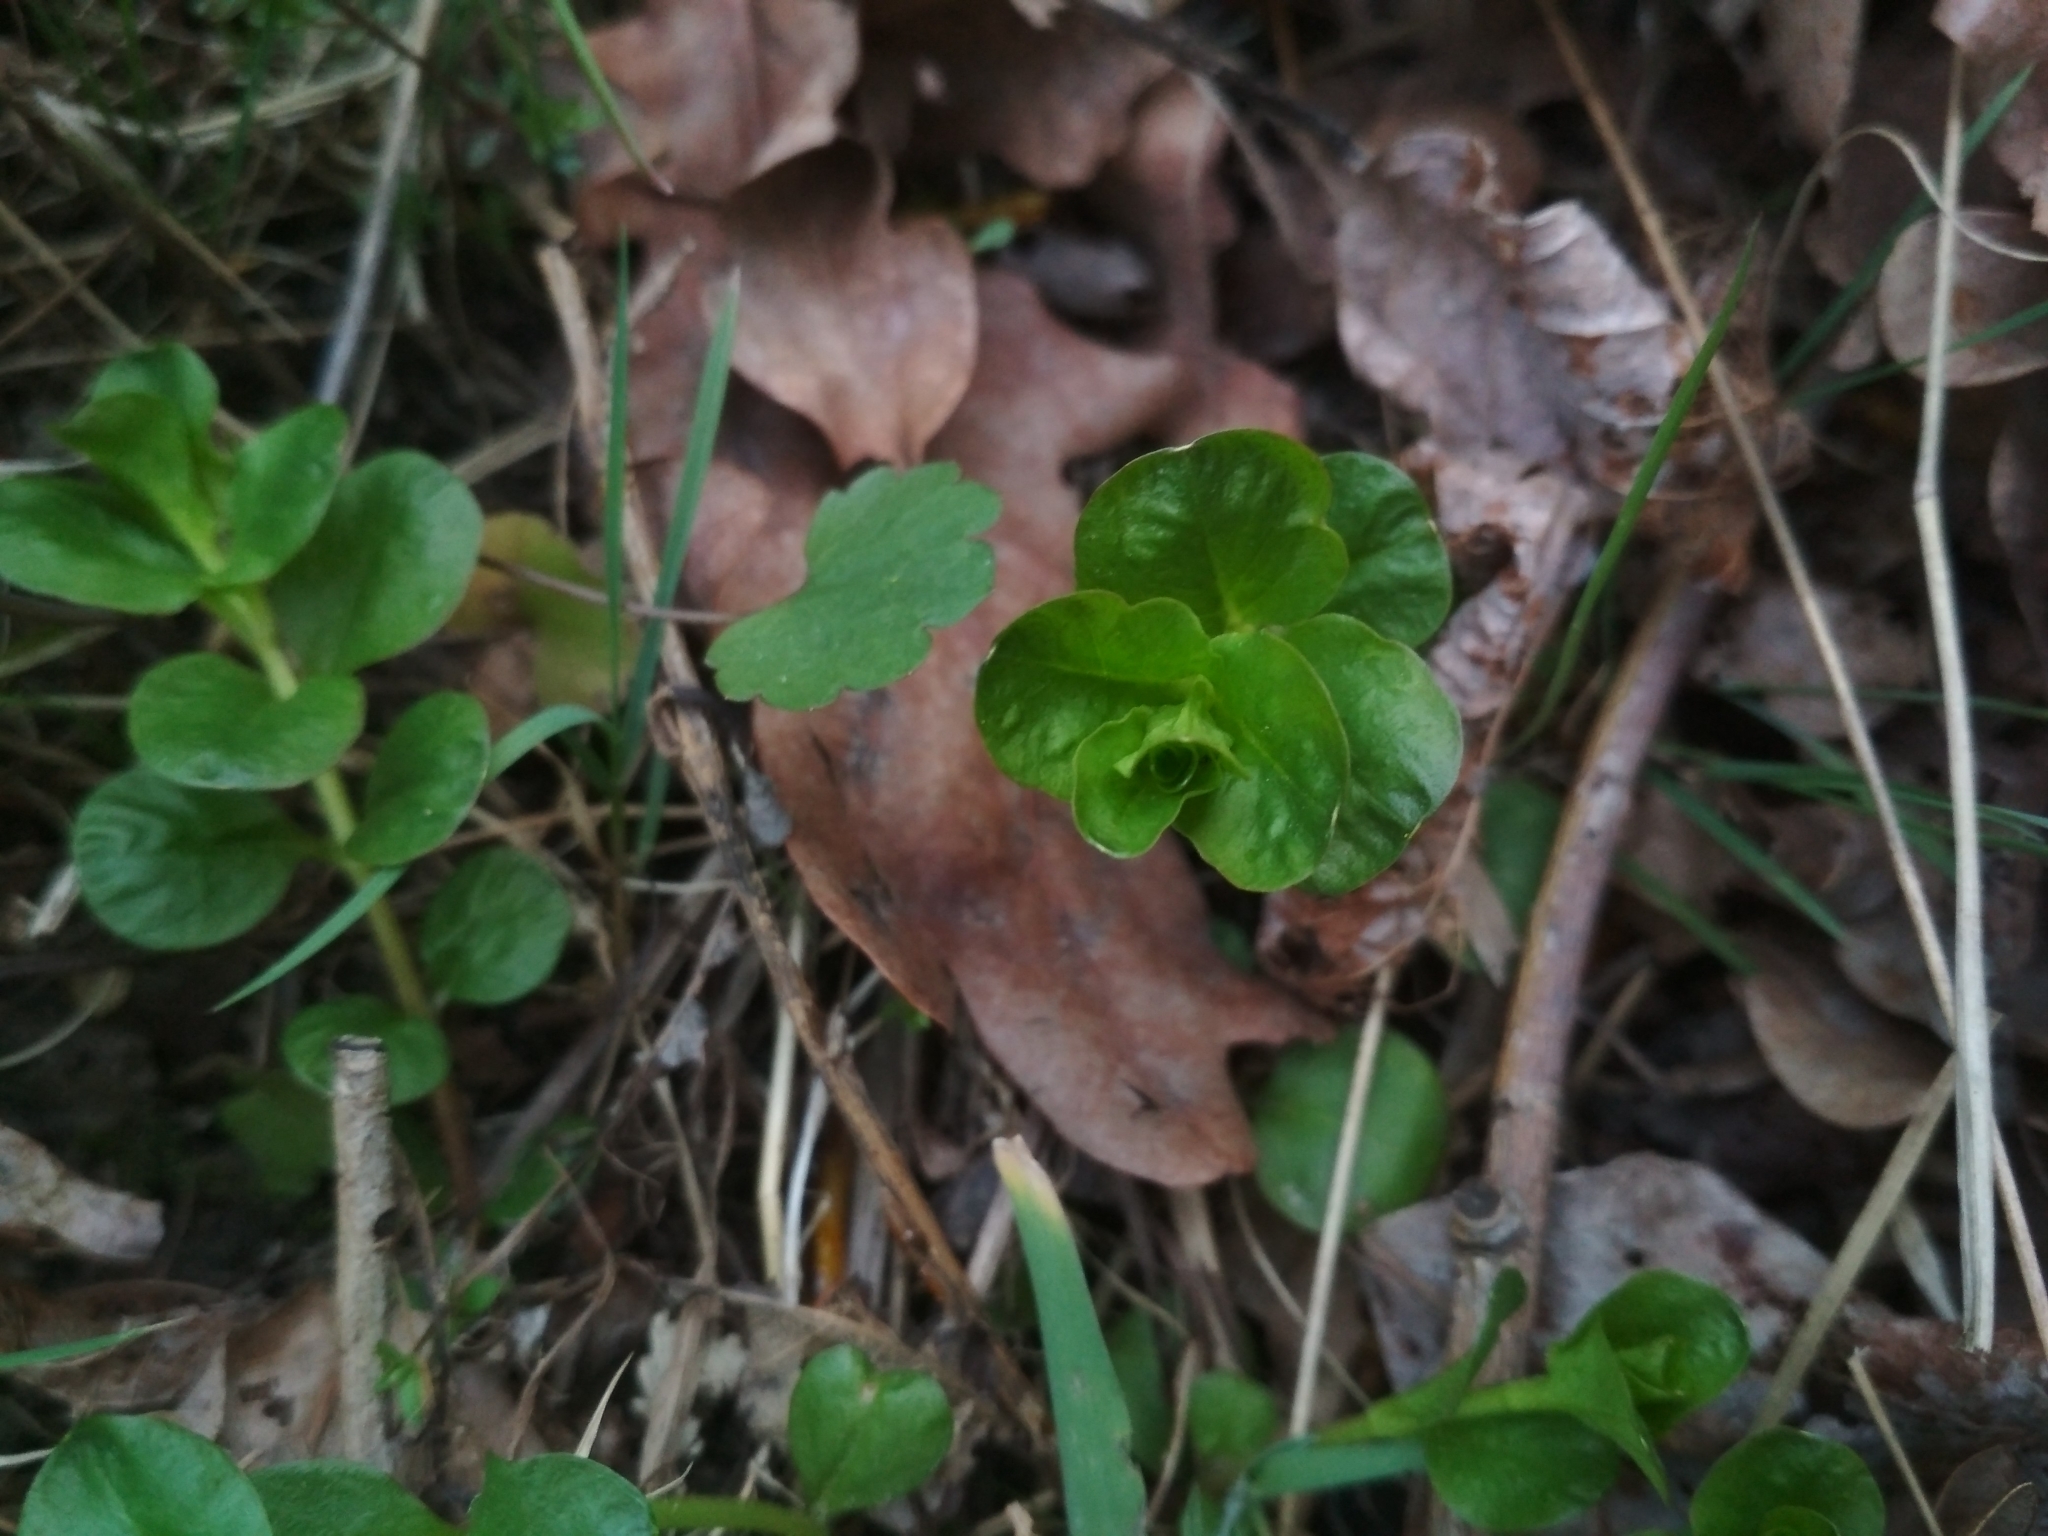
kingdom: Plantae
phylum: Tracheophyta
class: Magnoliopsida
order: Ericales
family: Primulaceae
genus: Lysimachia
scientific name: Lysimachia nummularia
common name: Moneywort
